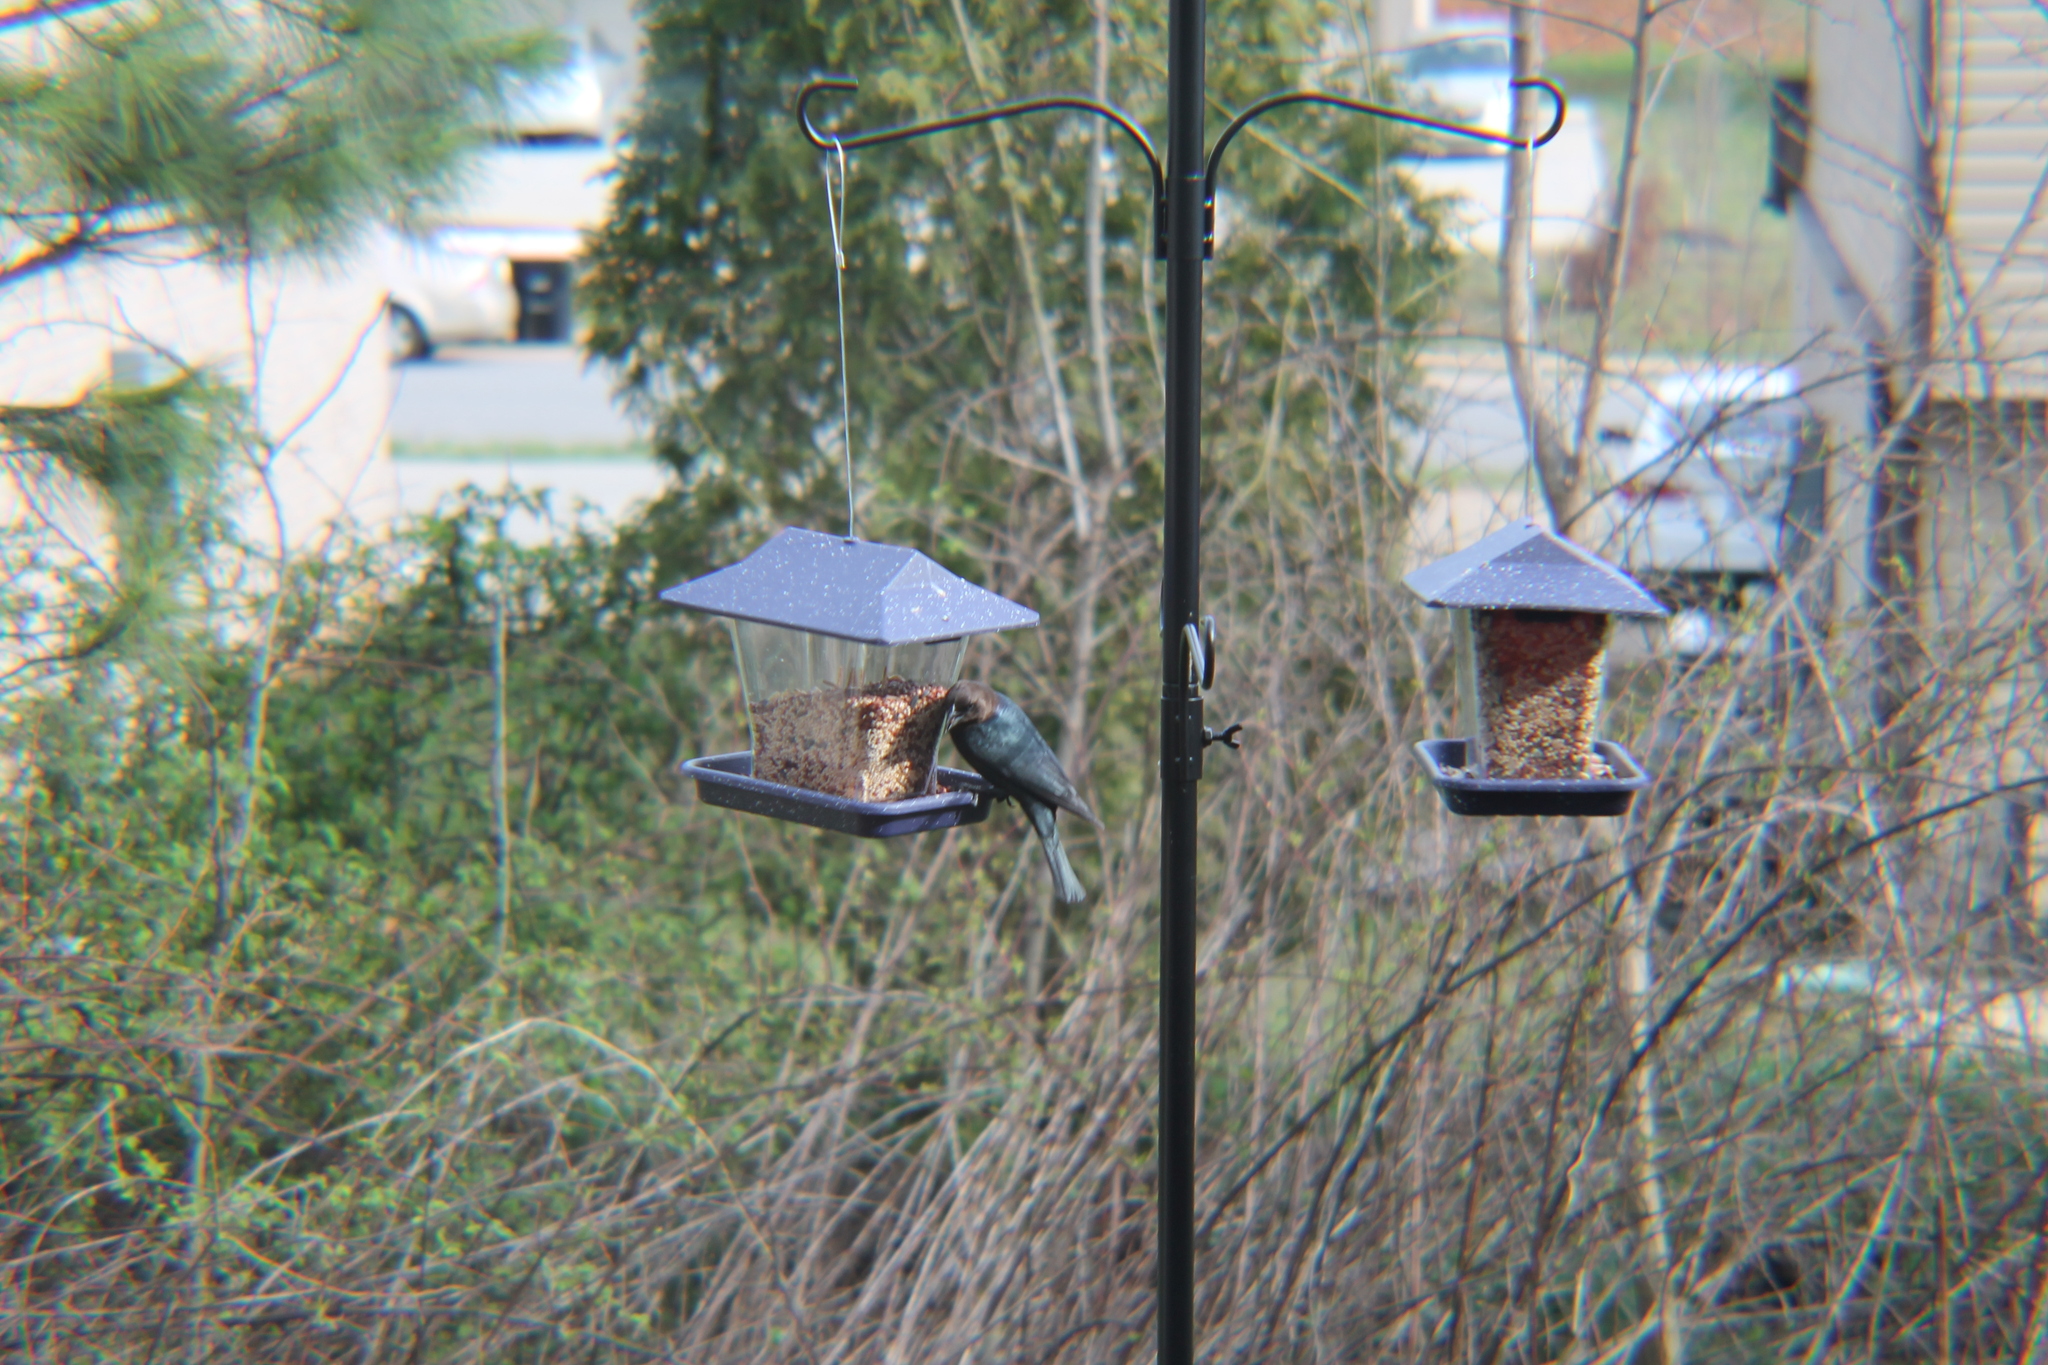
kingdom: Animalia
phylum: Chordata
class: Aves
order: Passeriformes
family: Icteridae
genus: Molothrus
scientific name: Molothrus ater
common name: Brown-headed cowbird
